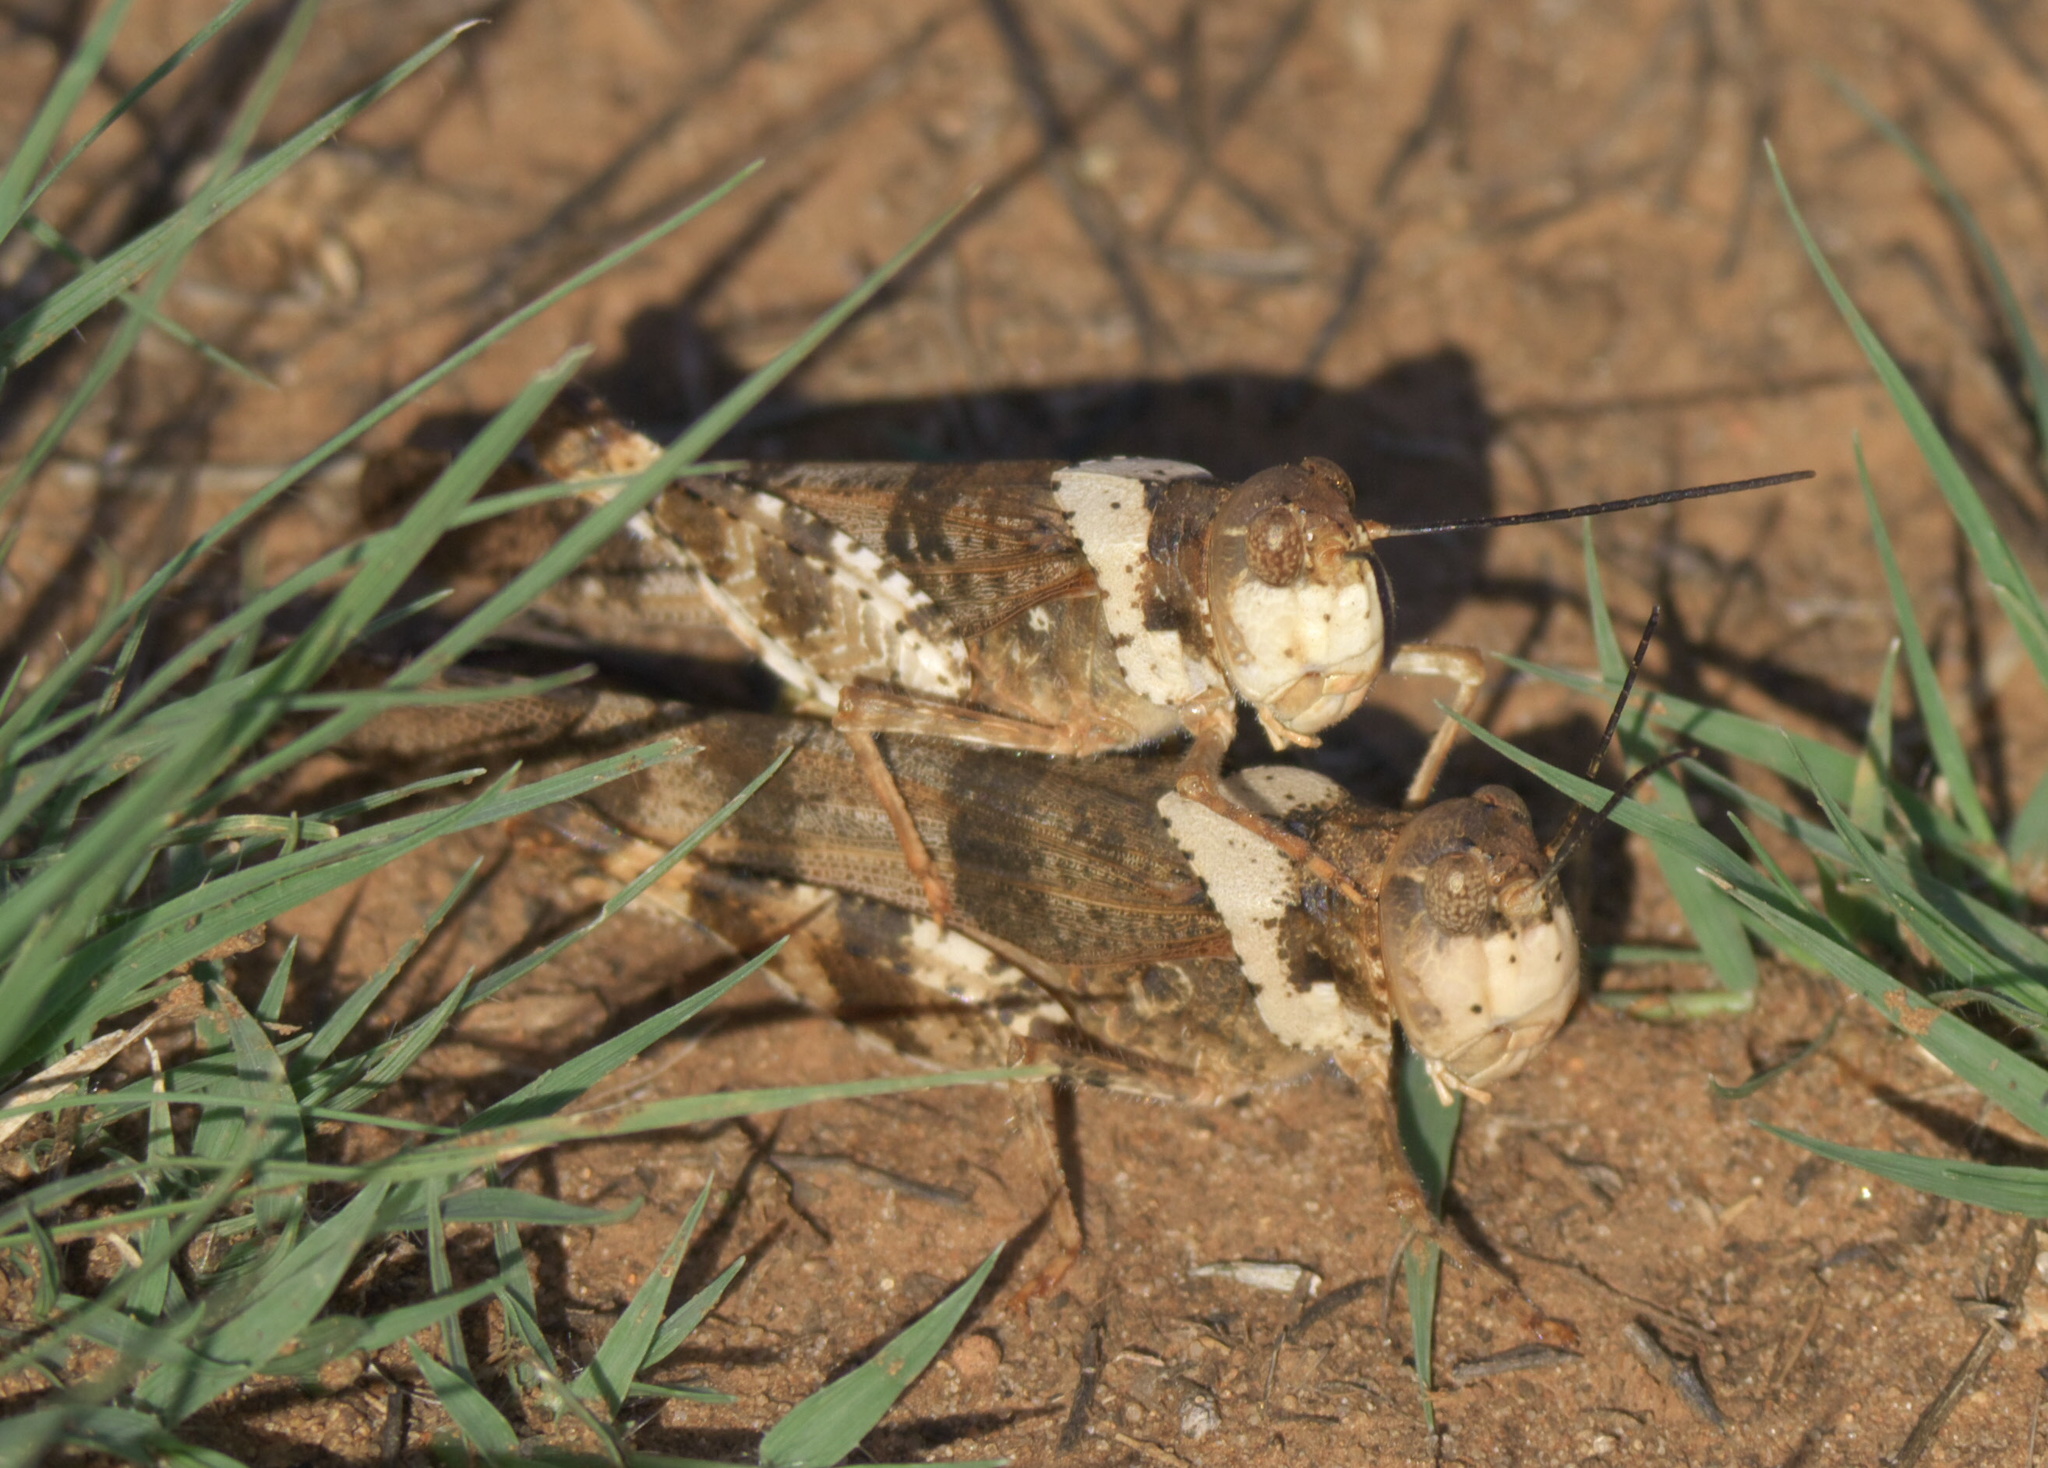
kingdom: Animalia
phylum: Arthropoda
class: Insecta
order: Orthoptera
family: Acrididae
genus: Spharagemon
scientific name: Spharagemon equale
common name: Orange-legged grasshopper
